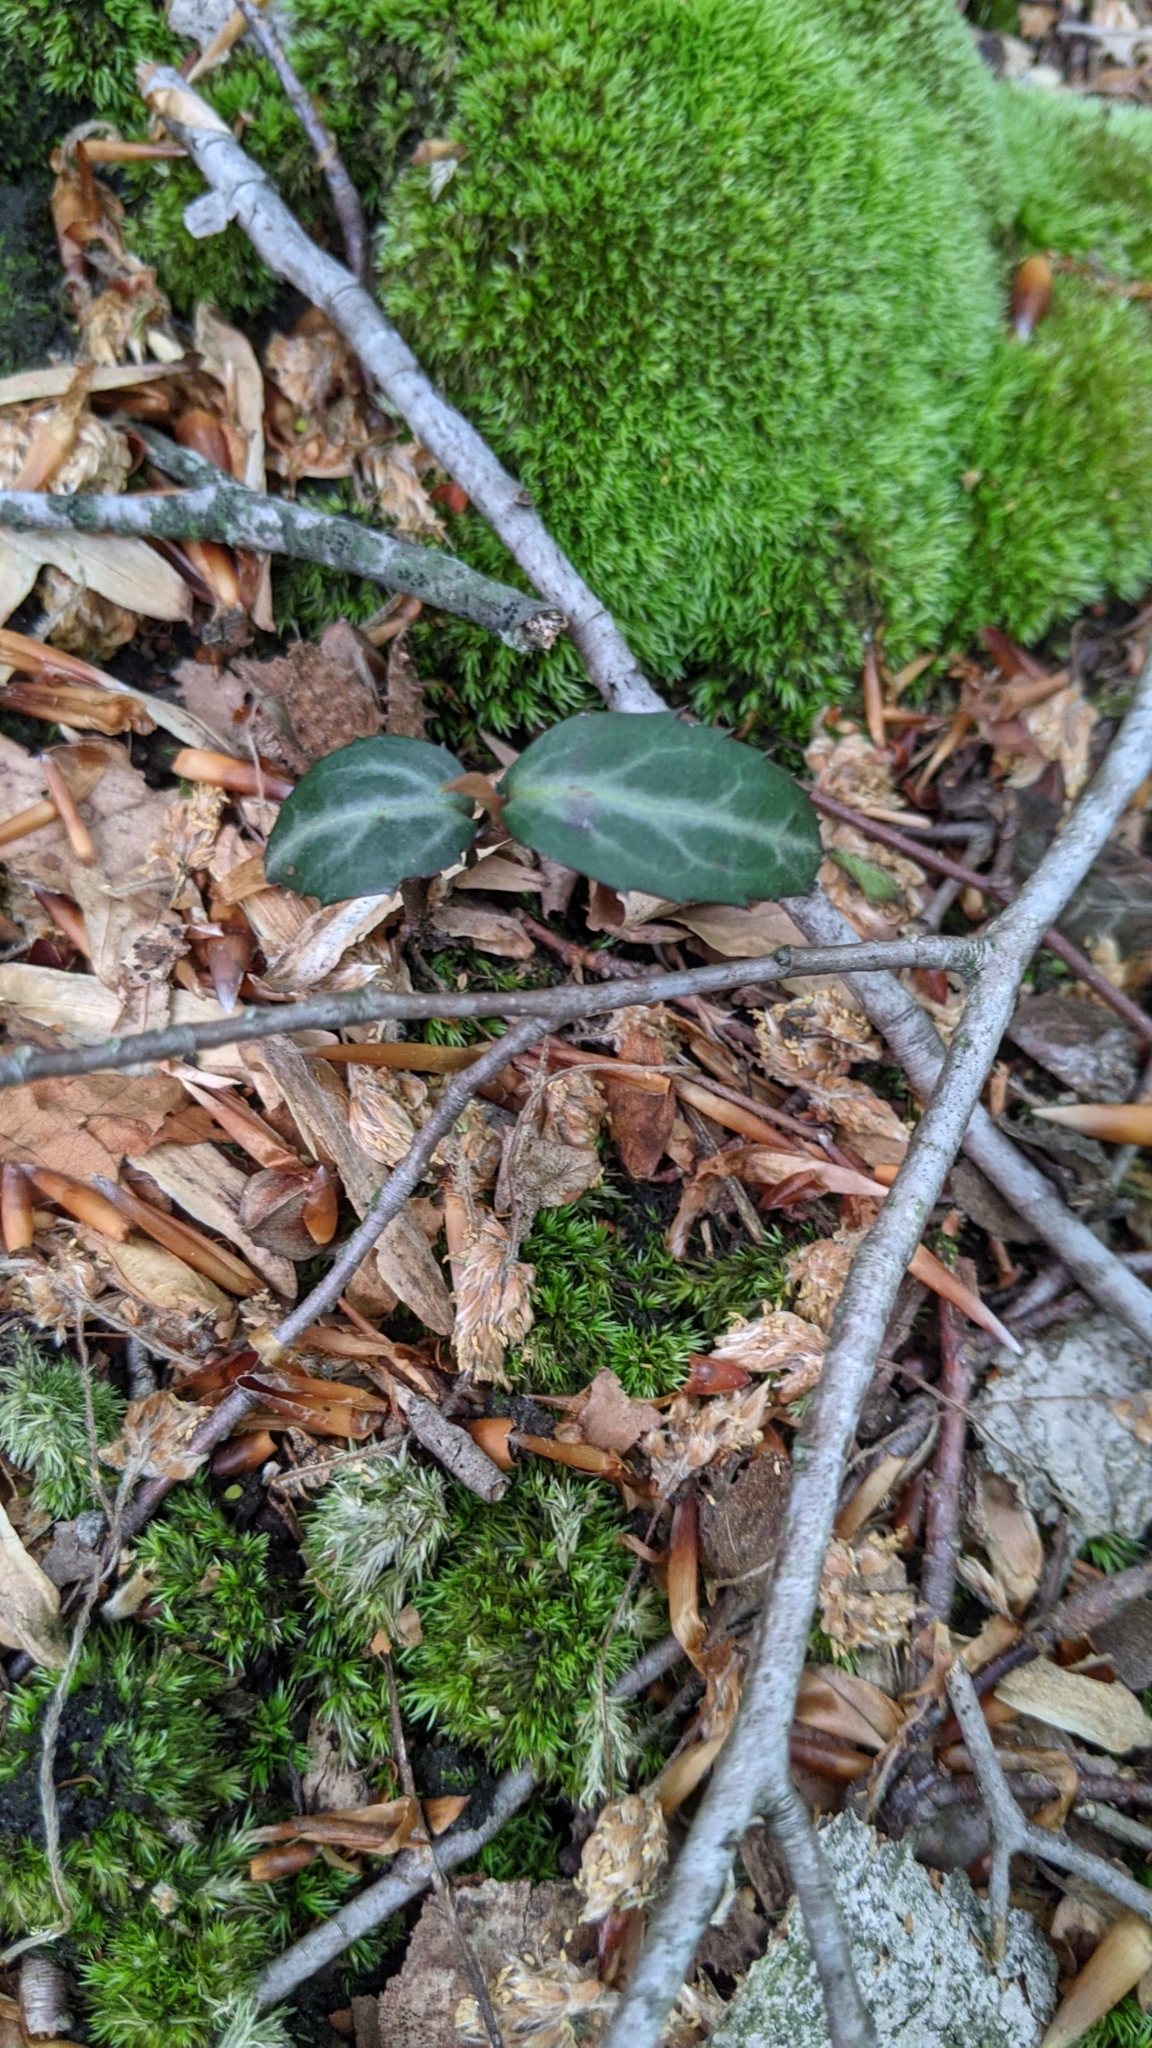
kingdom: Plantae
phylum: Tracheophyta
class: Magnoliopsida
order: Ericales
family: Ericaceae
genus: Chimaphila
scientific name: Chimaphila maculata
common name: Spotted pipsissewa
